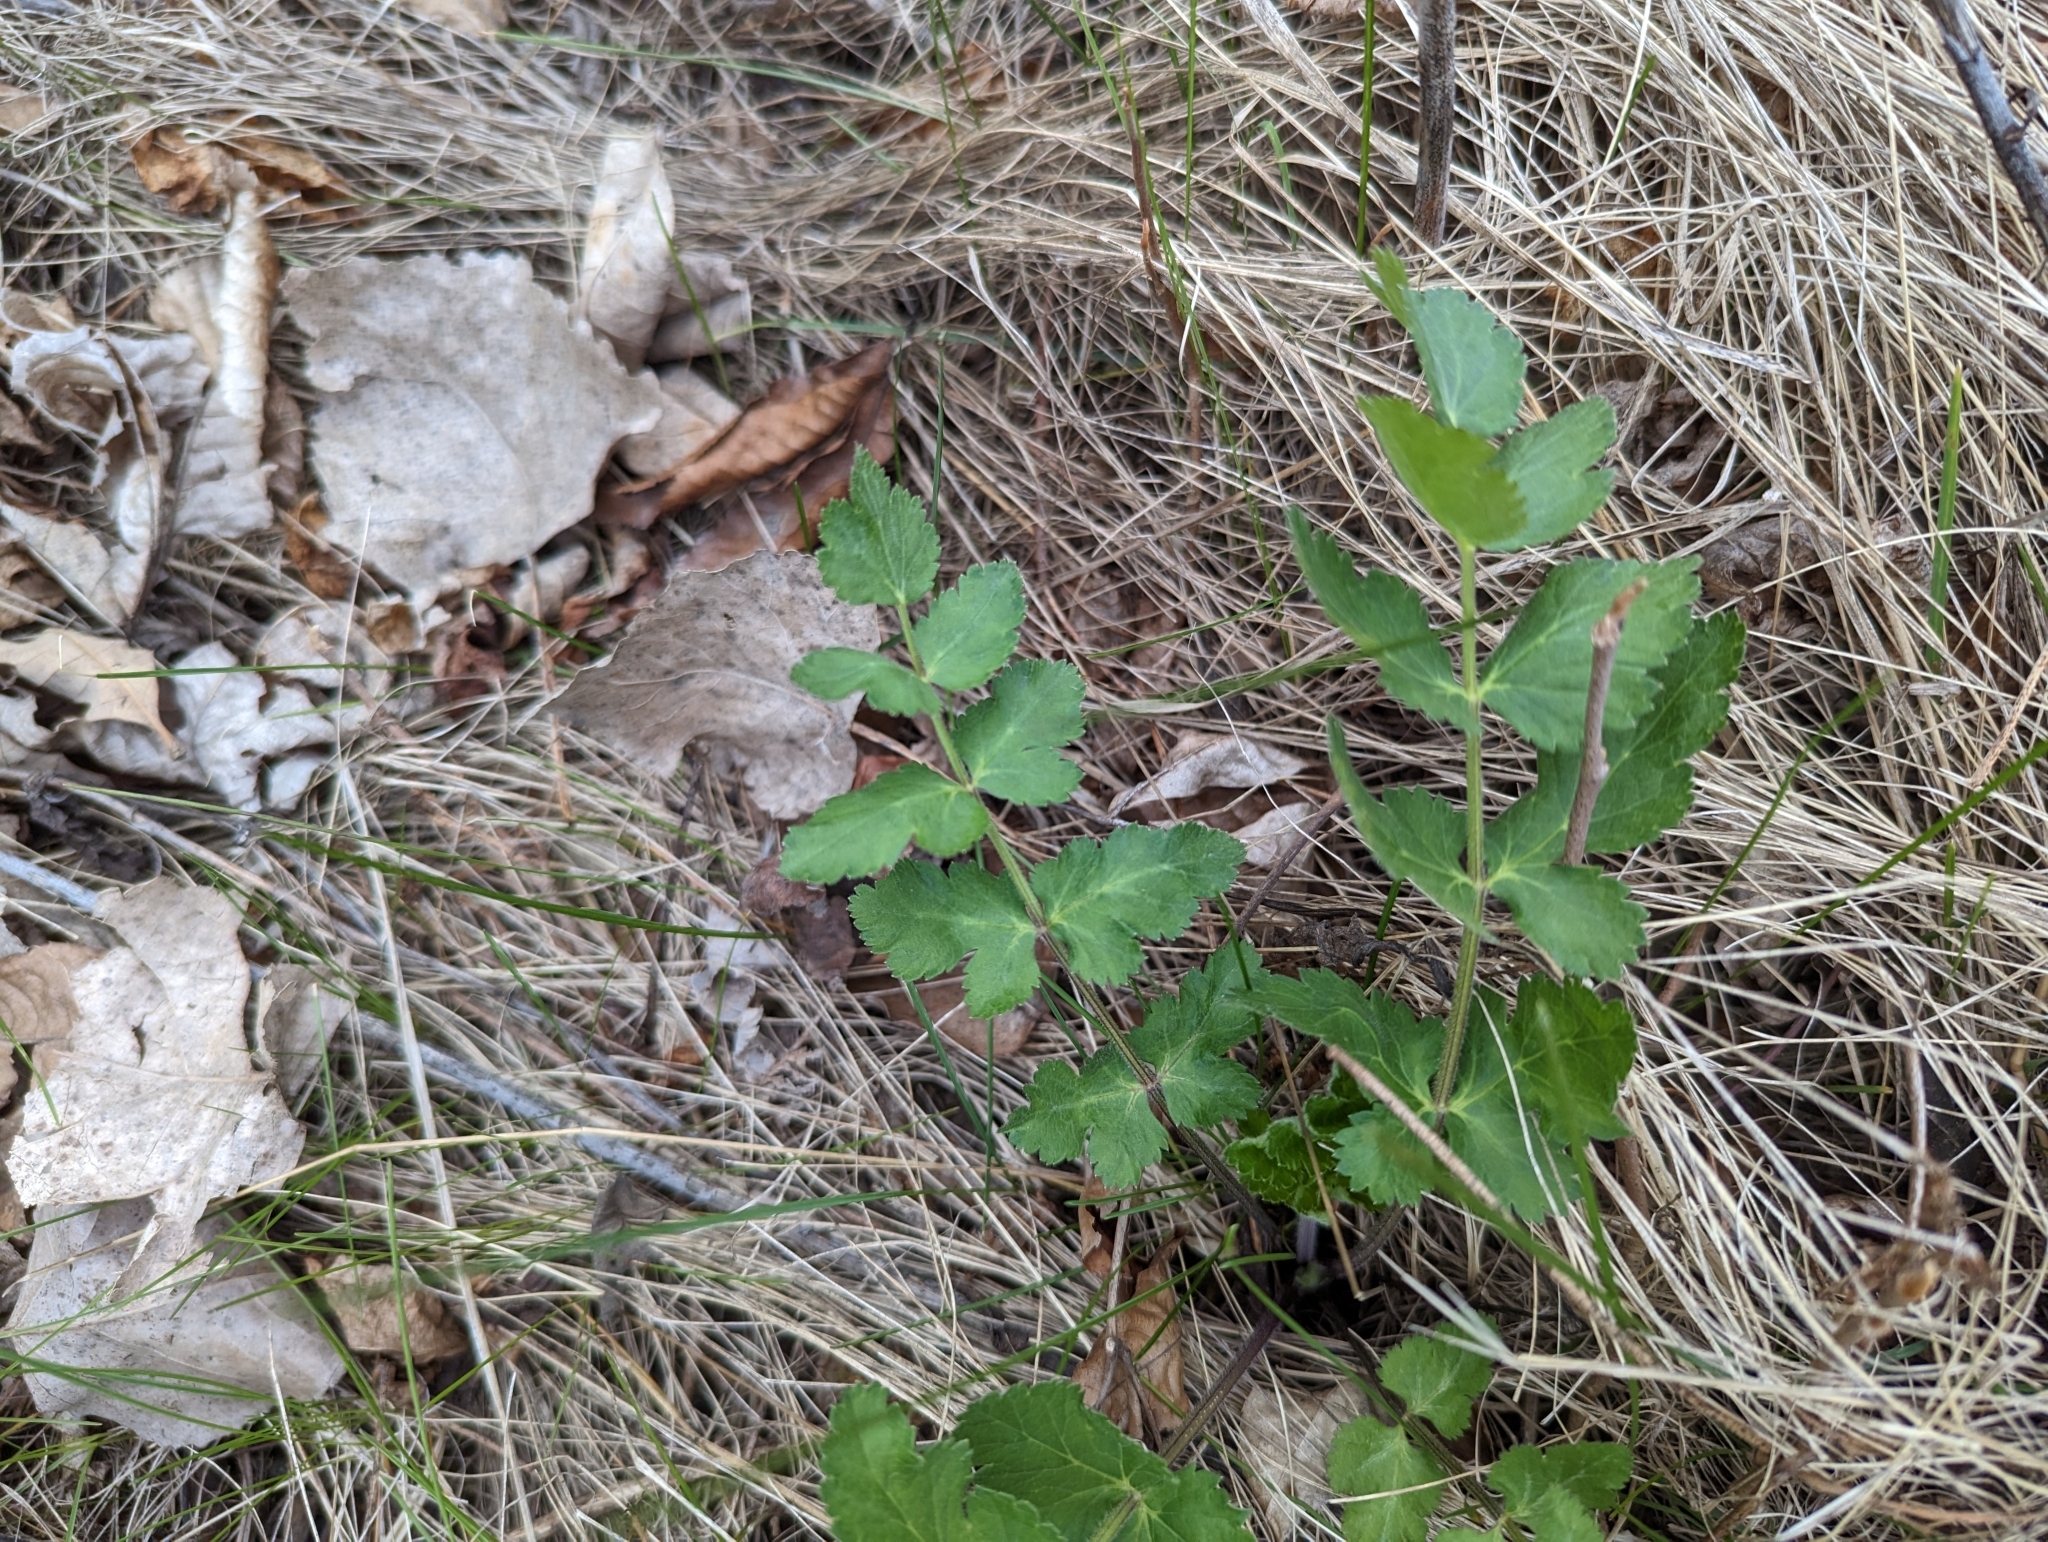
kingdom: Plantae
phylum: Tracheophyta
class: Magnoliopsida
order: Apiales
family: Apiaceae
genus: Pastinaca
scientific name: Pastinaca sativa
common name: Wild parsnip
